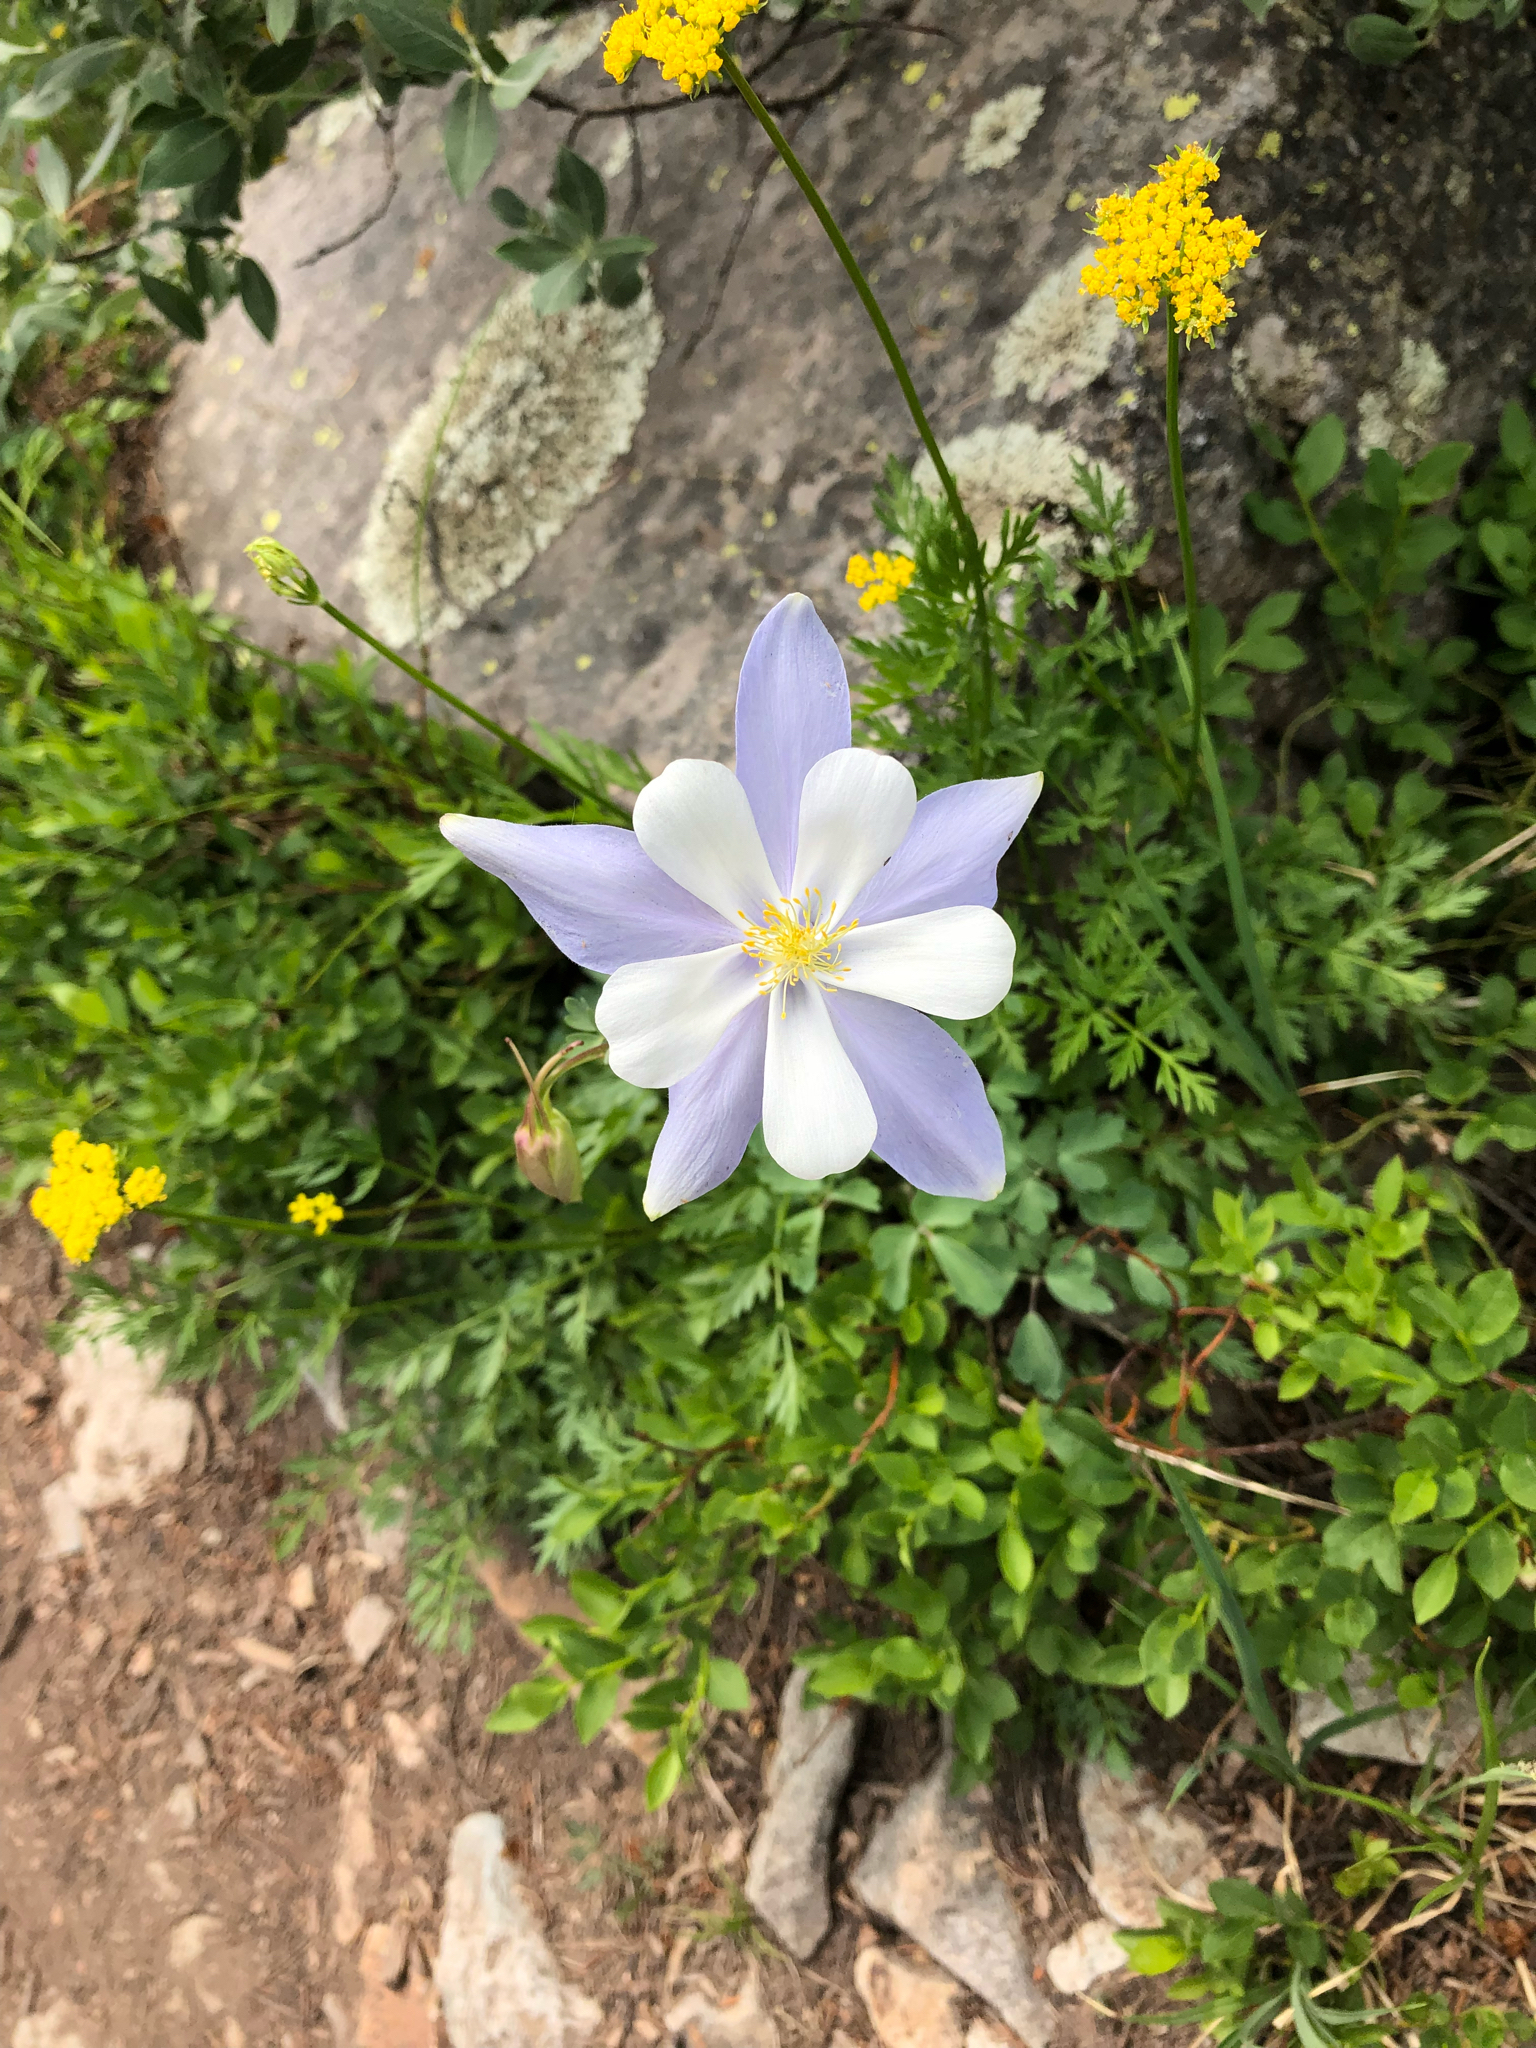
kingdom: Plantae
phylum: Tracheophyta
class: Magnoliopsida
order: Ranunculales
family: Ranunculaceae
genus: Aquilegia
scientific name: Aquilegia coerulea
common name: Rocky mountain columbine
